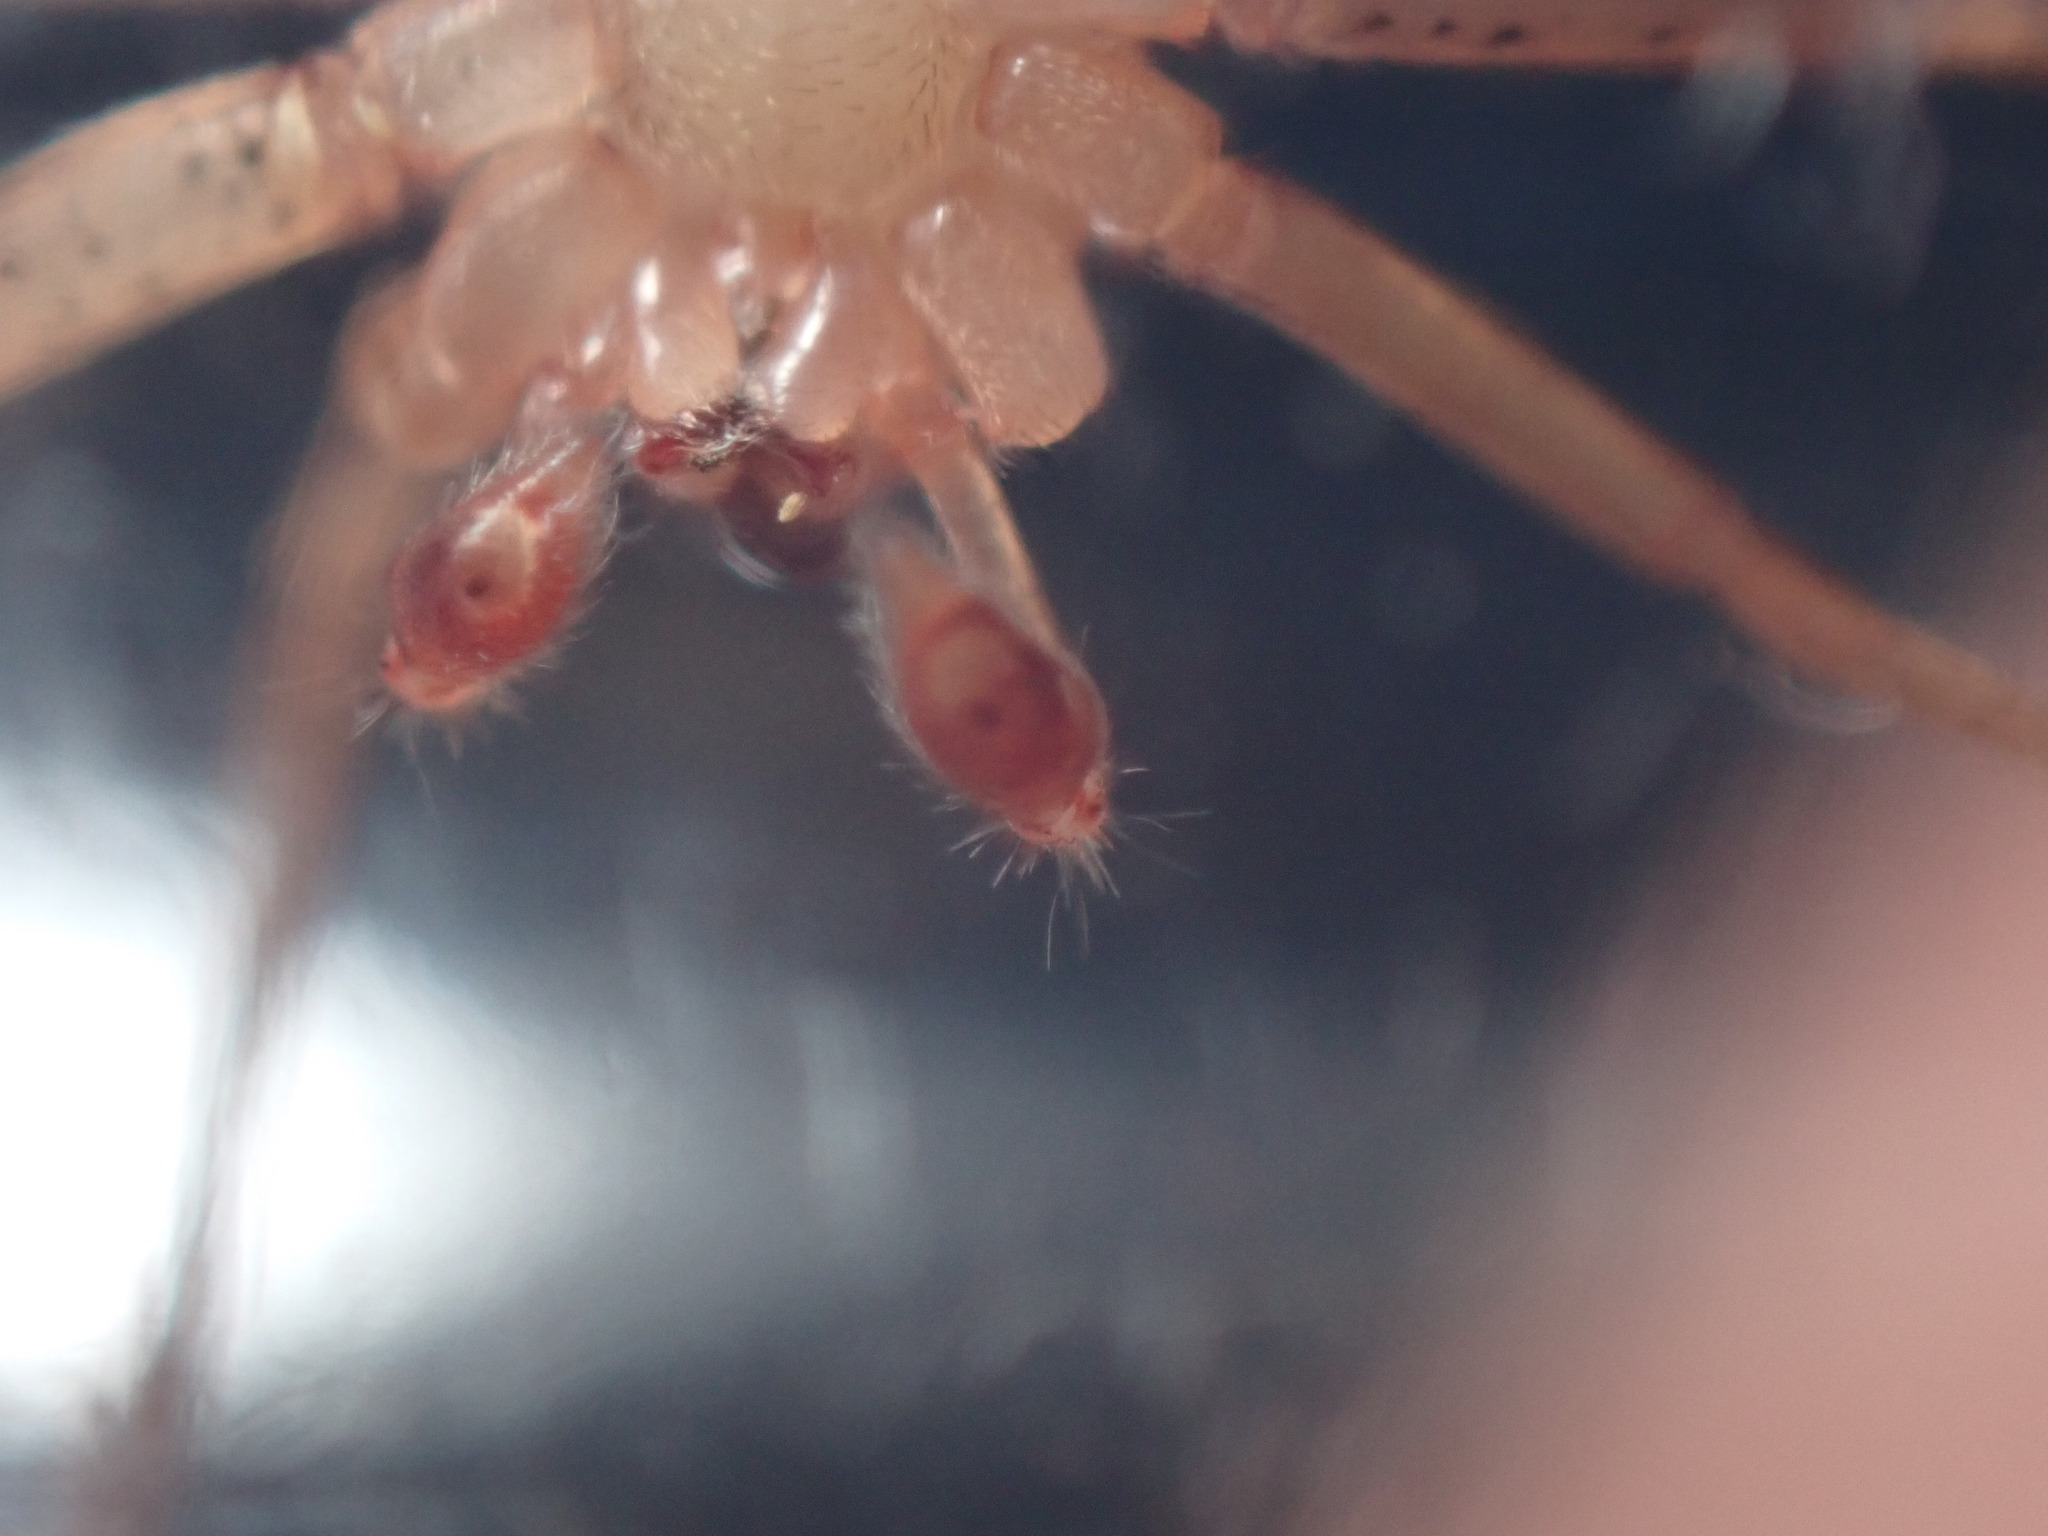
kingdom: Animalia
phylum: Arthropoda
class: Arachnida
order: Araneae
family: Ctenidae
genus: Anahita
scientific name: Anahita punctulata
